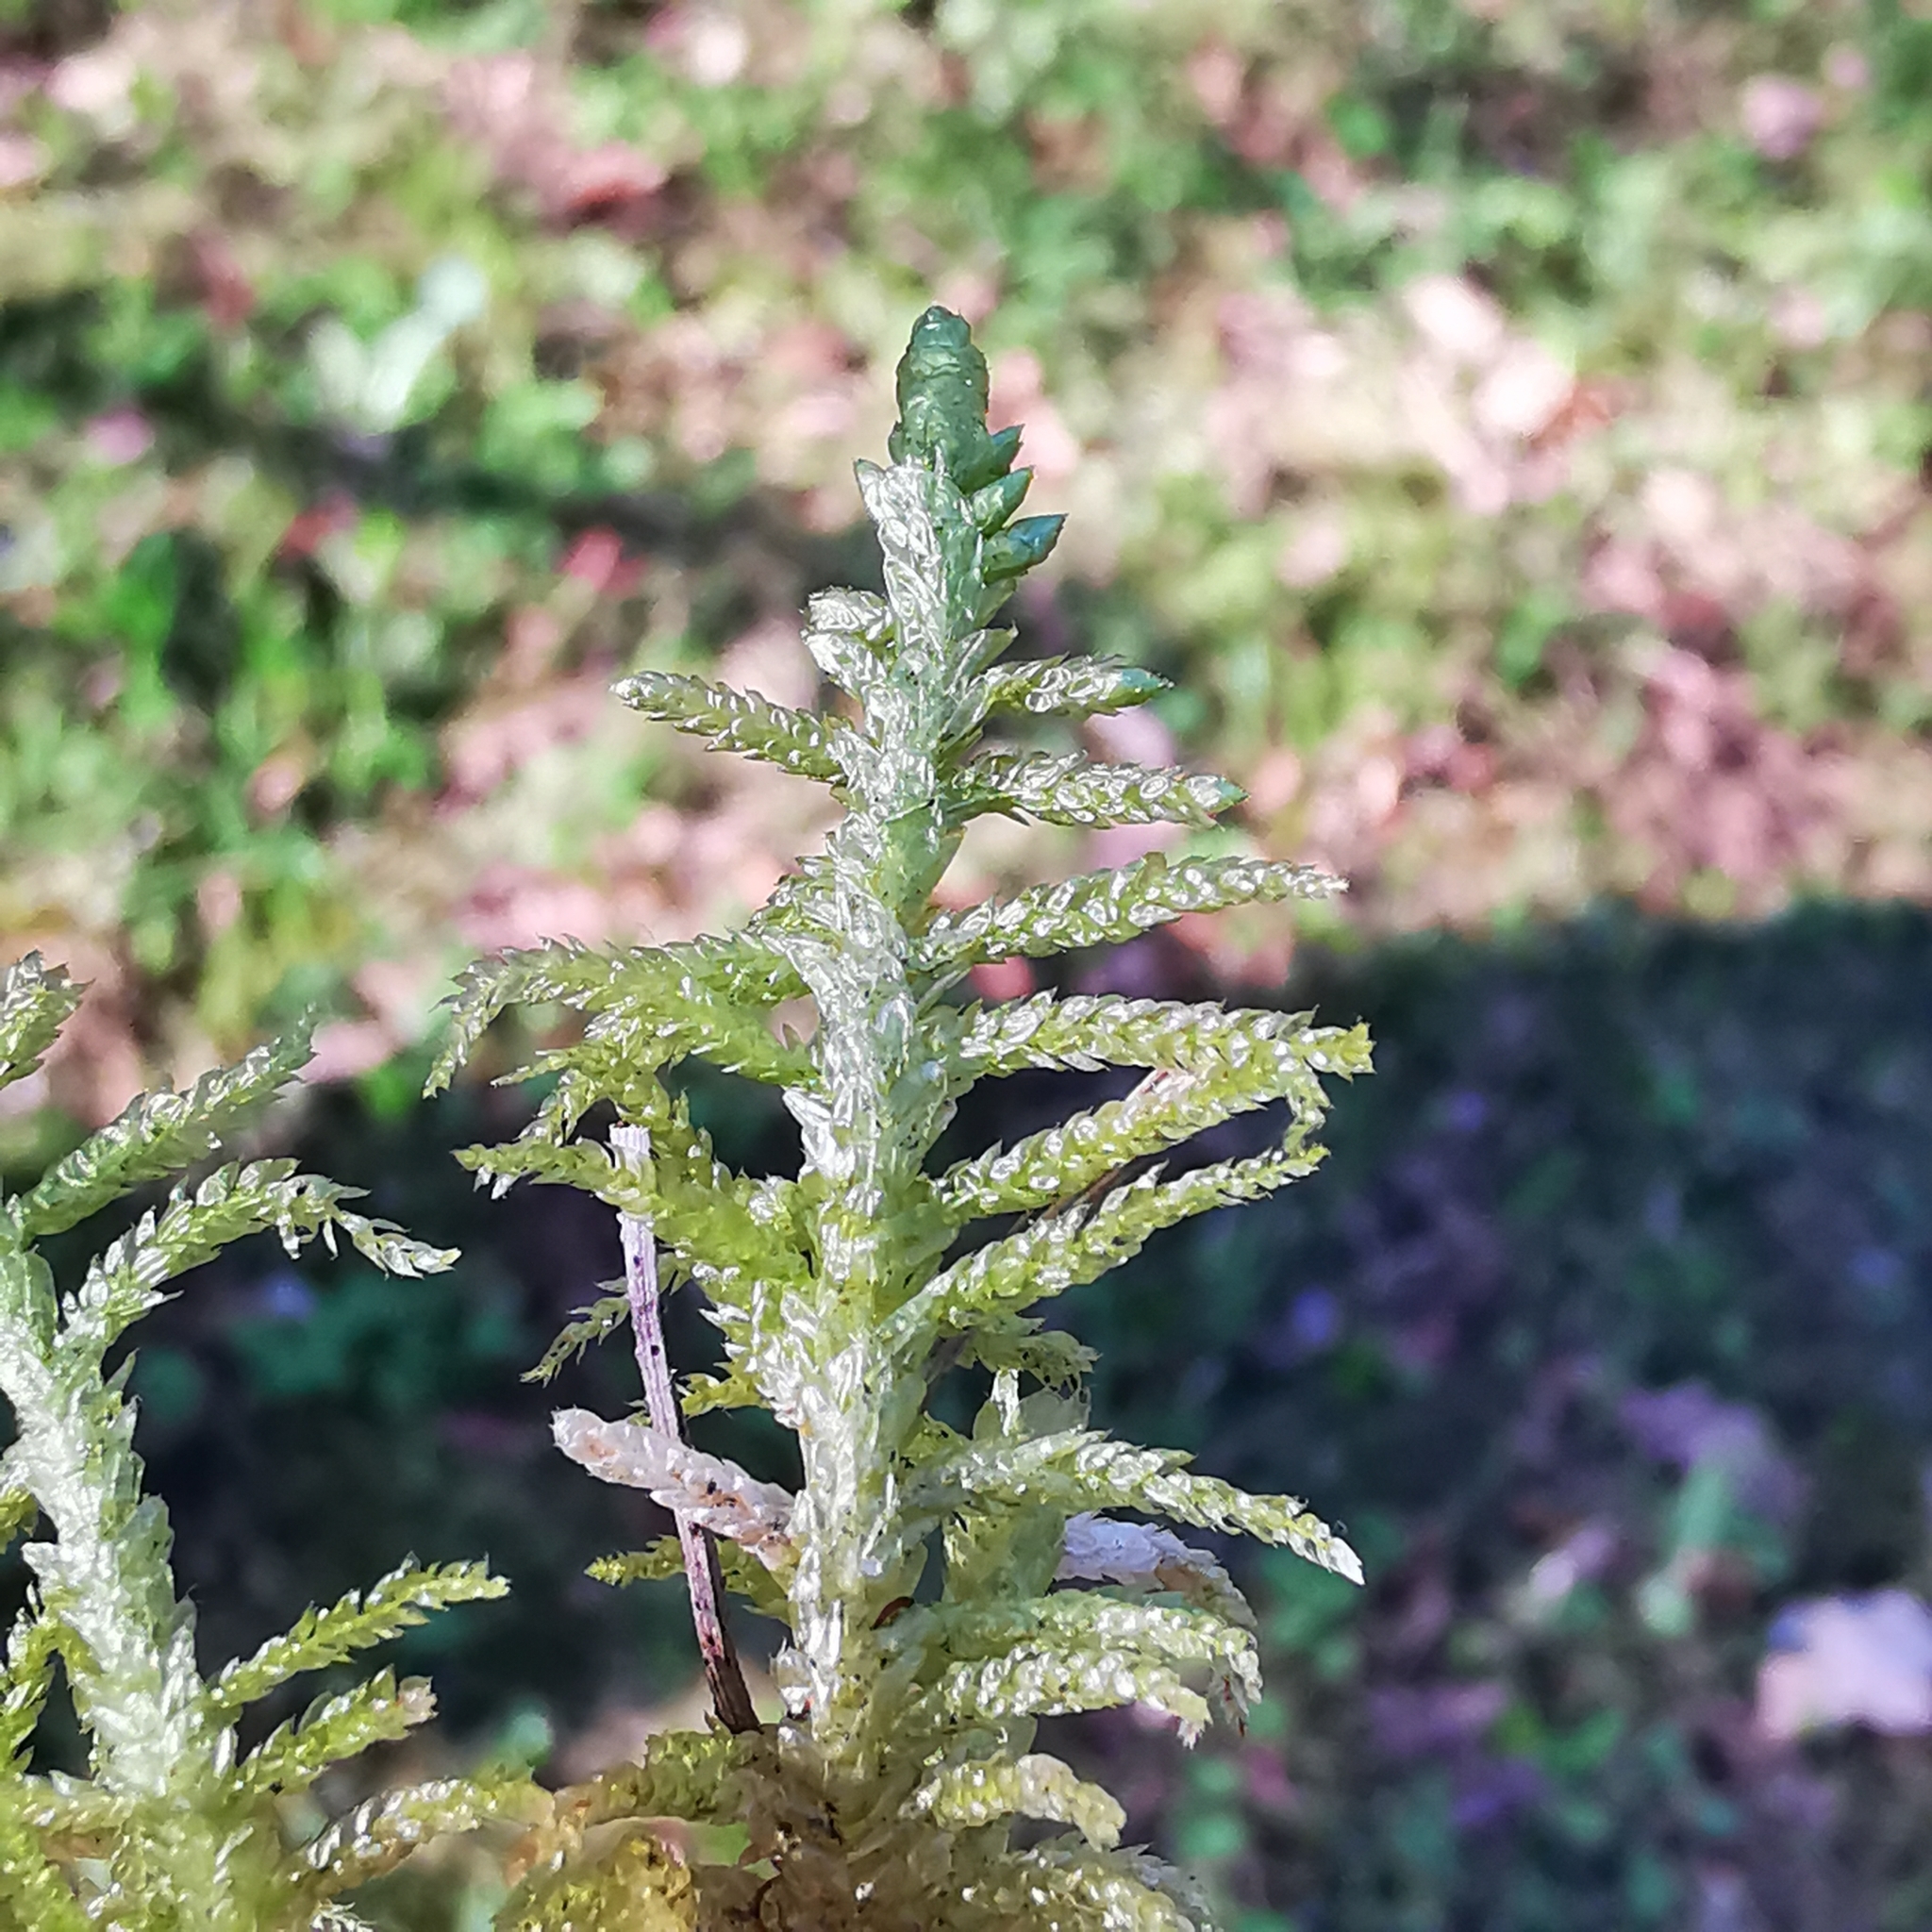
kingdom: Plantae
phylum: Bryophyta
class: Bryopsida
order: Hypnales
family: Brachytheciaceae
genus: Pseudoscleropodium
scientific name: Pseudoscleropodium purum
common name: Neat feather-moss
